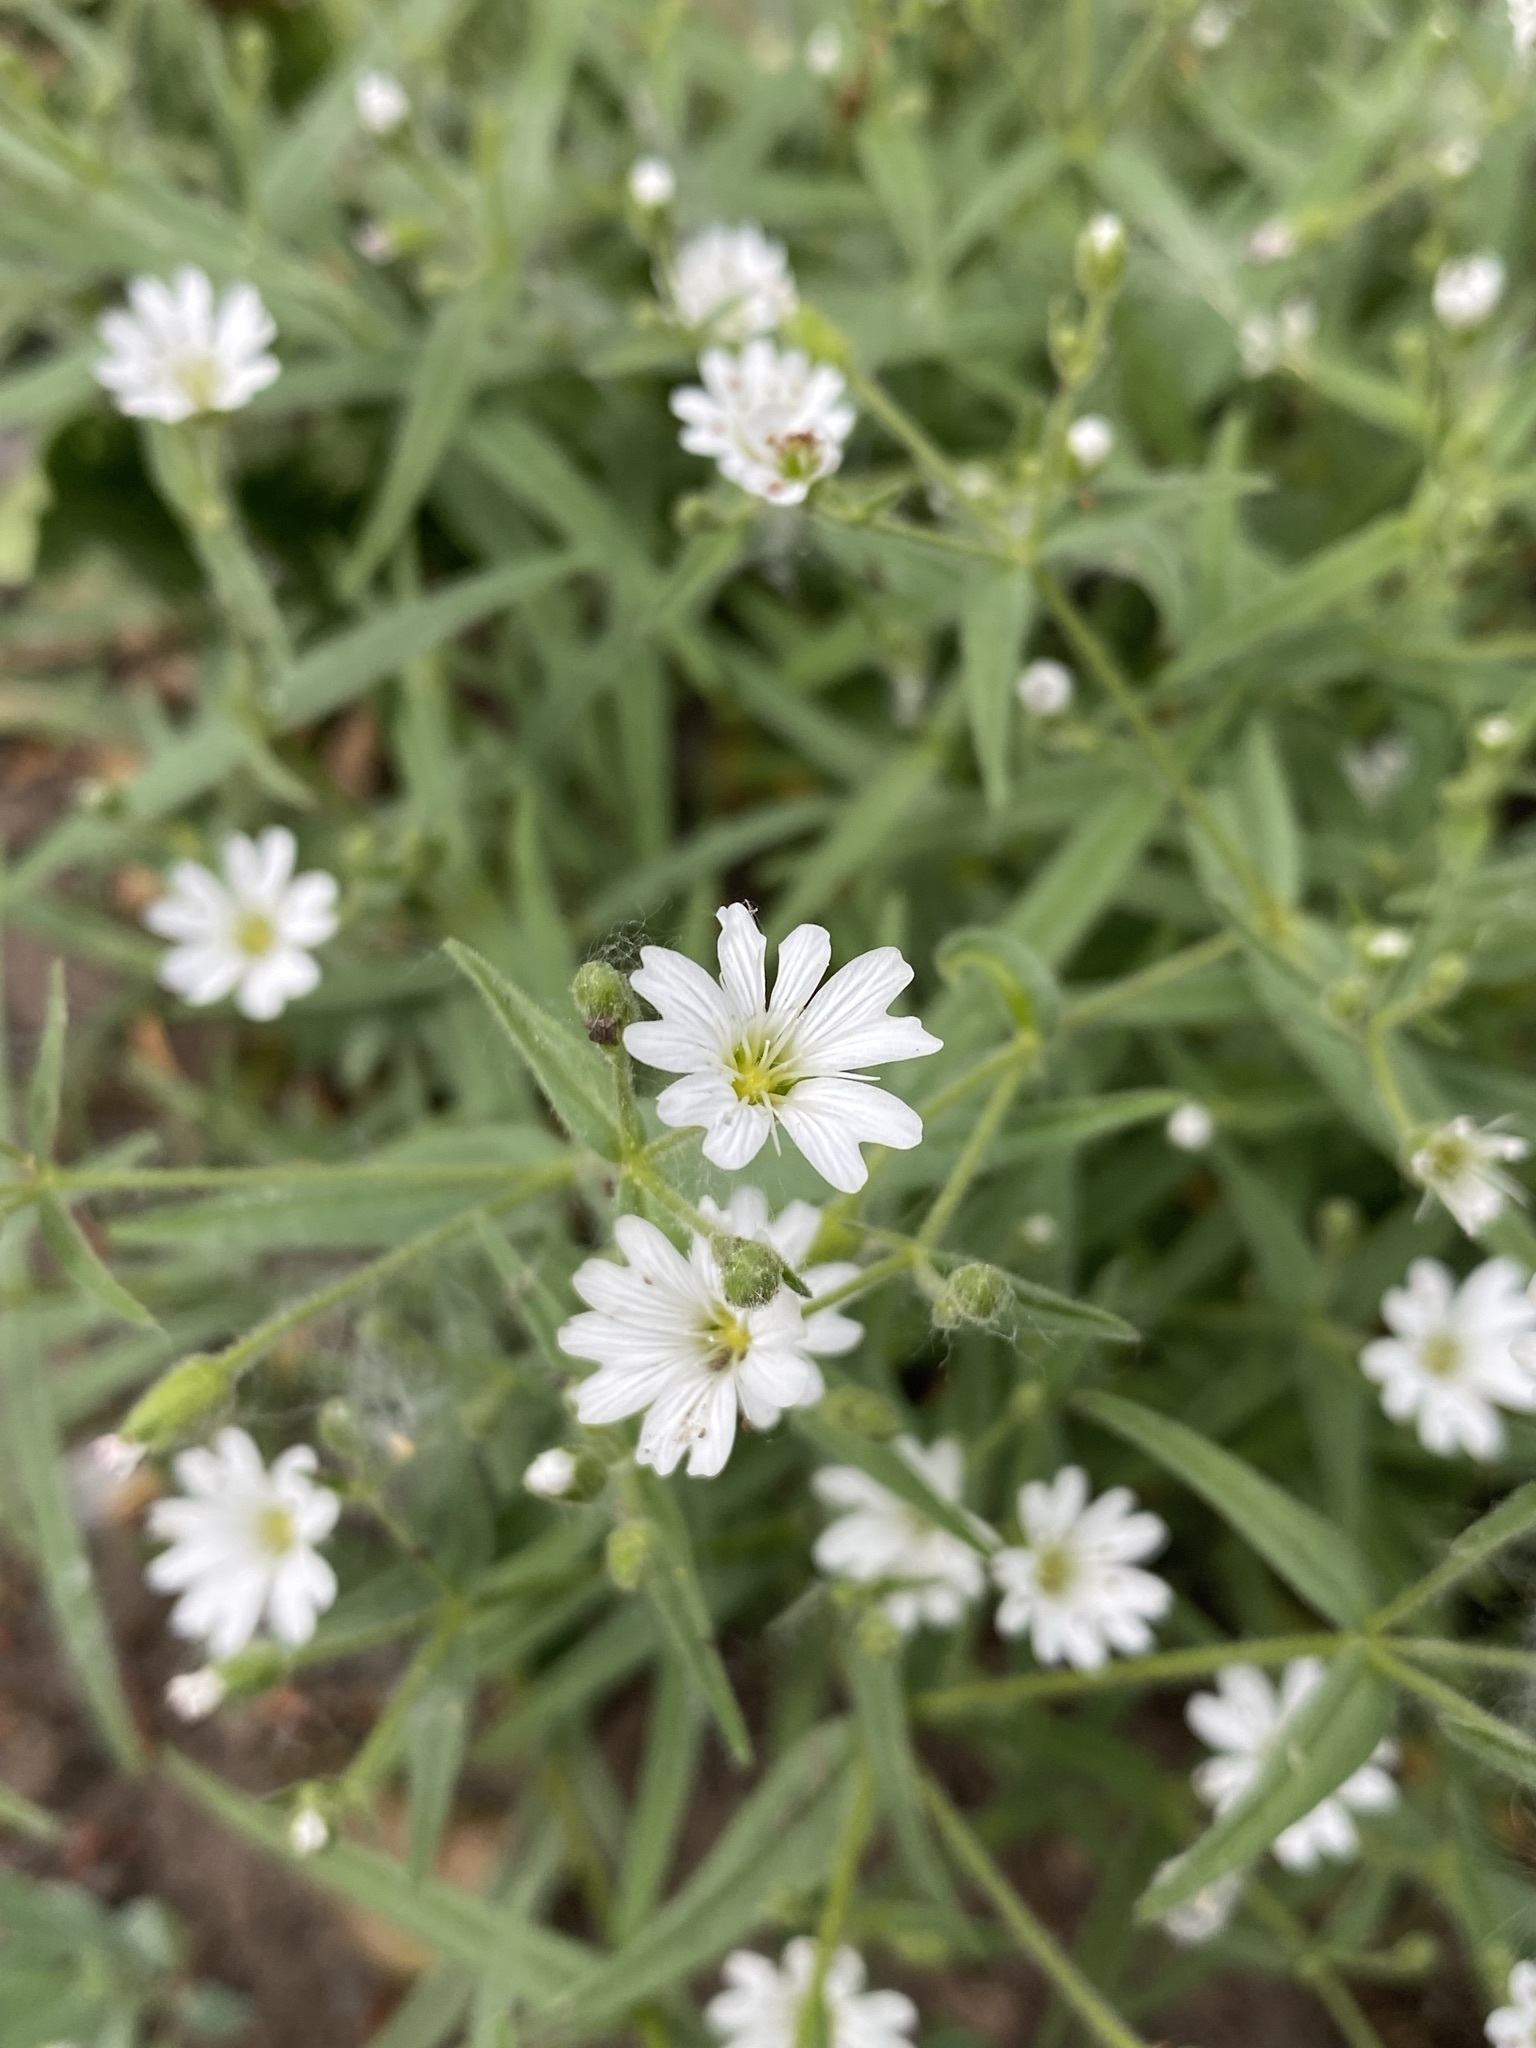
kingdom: Plantae
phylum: Tracheophyta
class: Magnoliopsida
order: Caryophyllales
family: Caryophyllaceae
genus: Schizotechium
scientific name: Schizotechium jamesianum
